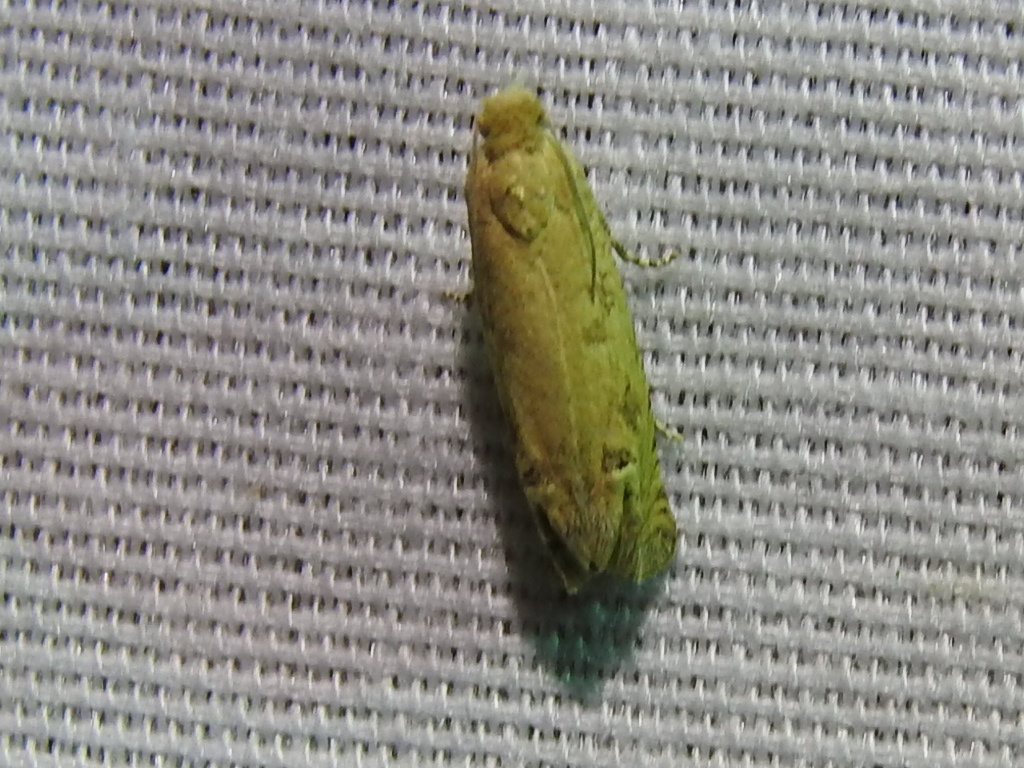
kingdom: Animalia
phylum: Arthropoda
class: Insecta
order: Lepidoptera
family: Tortricidae
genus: Pelochrista
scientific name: Pelochrista exclusoriana
